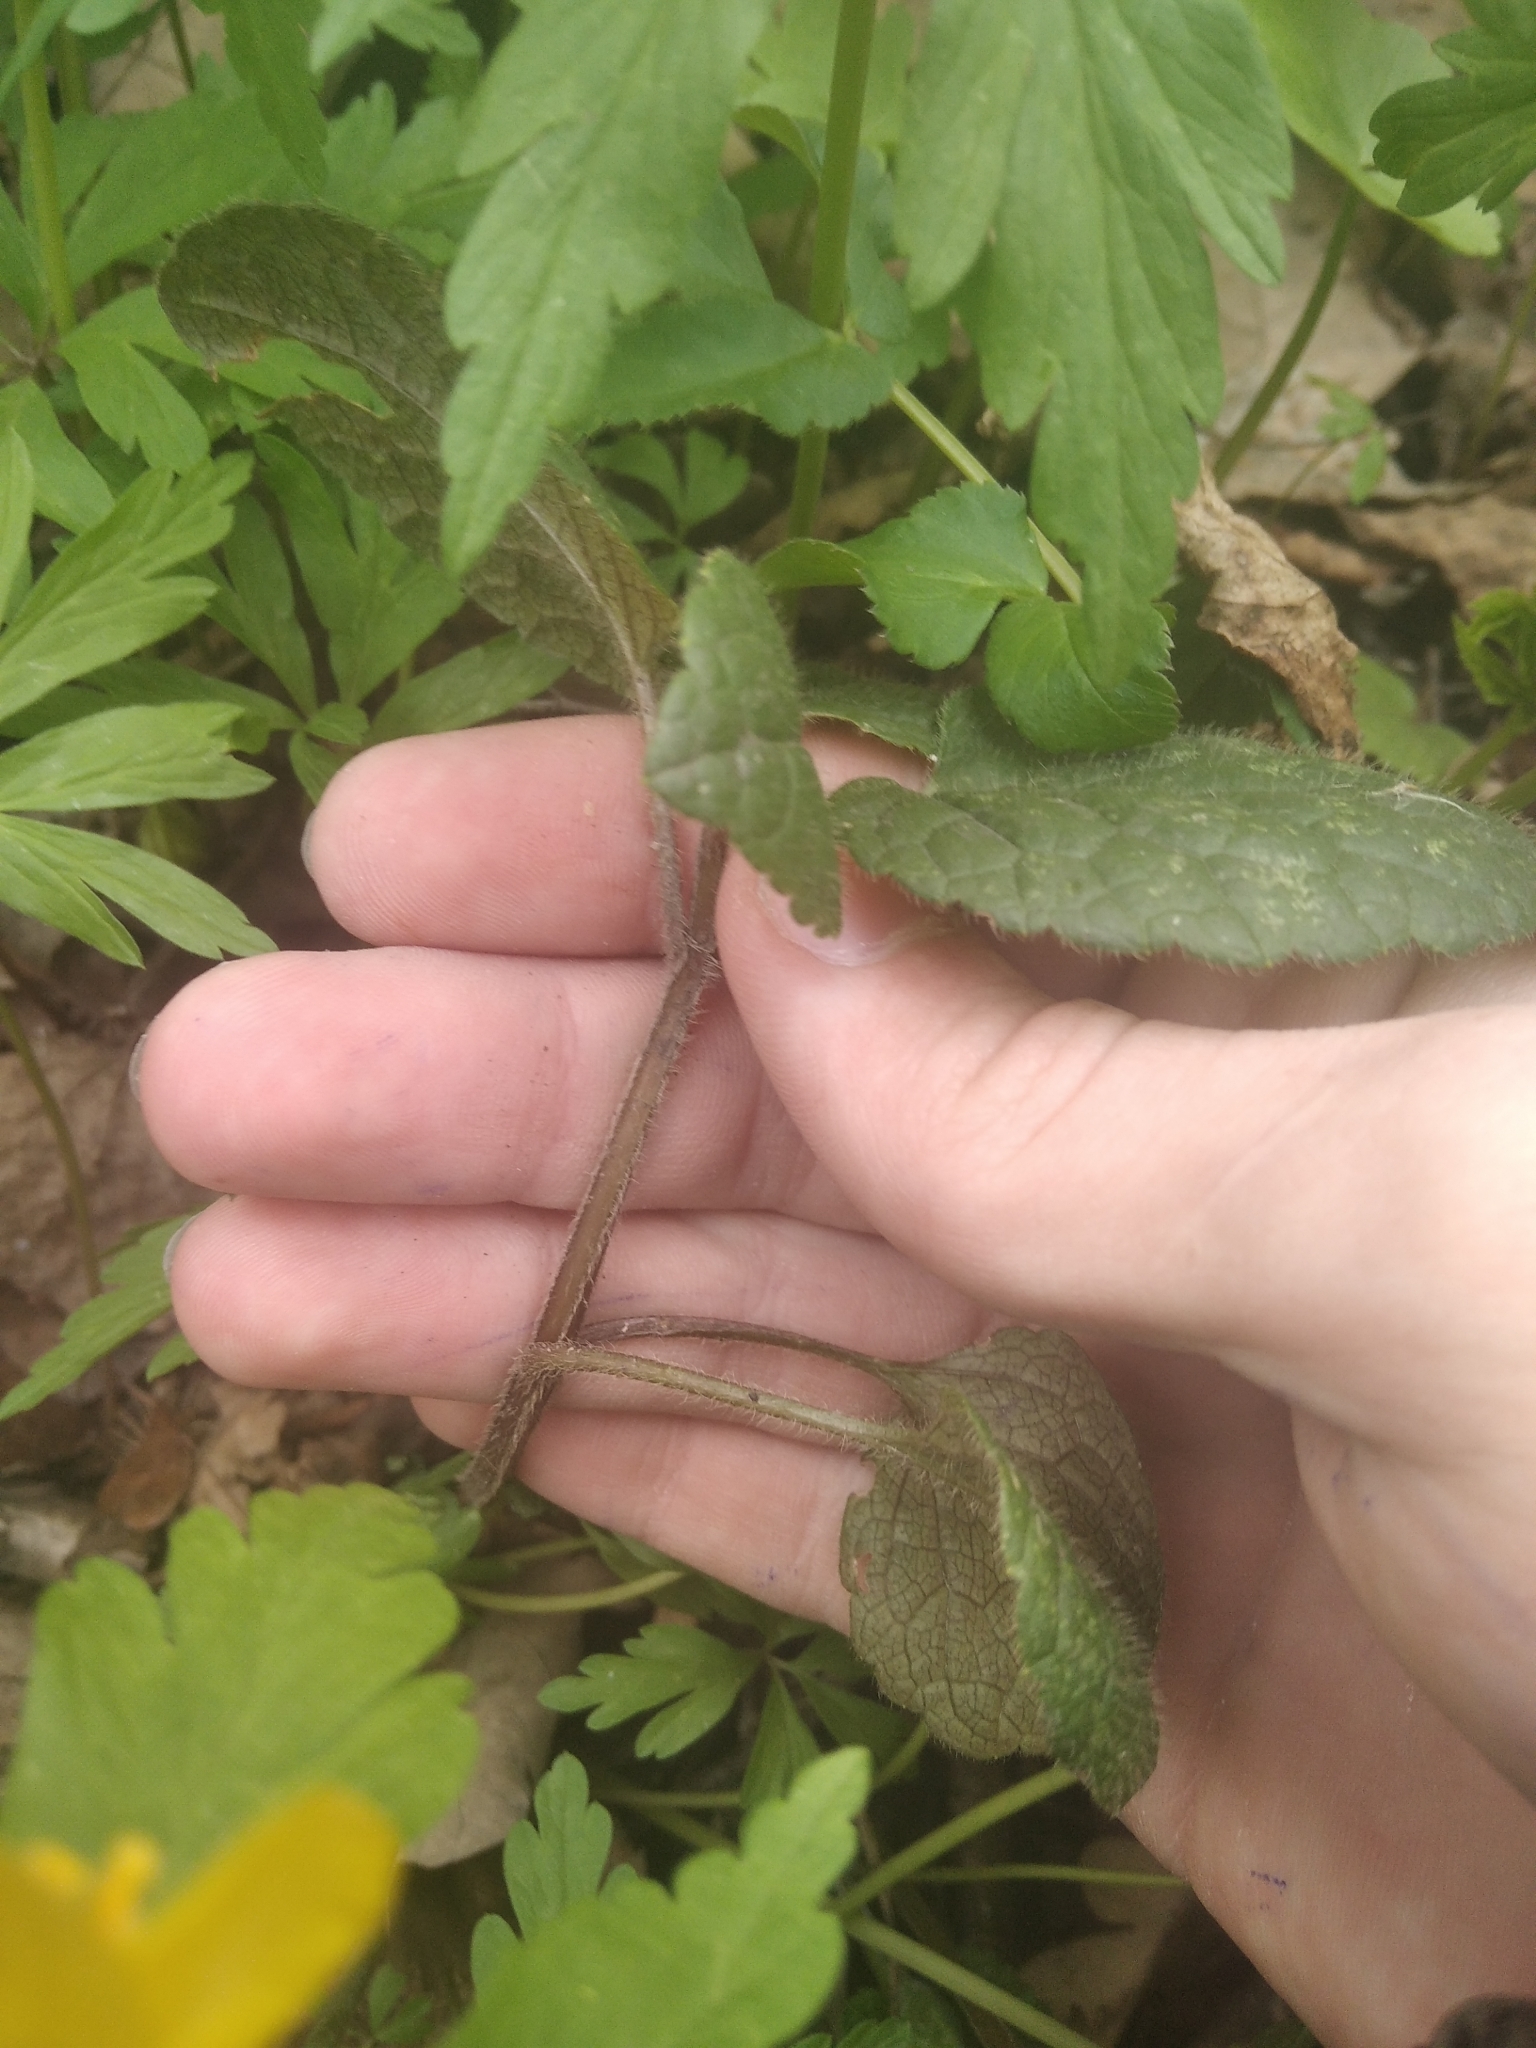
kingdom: Plantae
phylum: Tracheophyta
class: Magnoliopsida
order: Lamiales
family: Lamiaceae
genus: Lamium
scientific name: Lamium galeobdolon
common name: Yellow archangel
